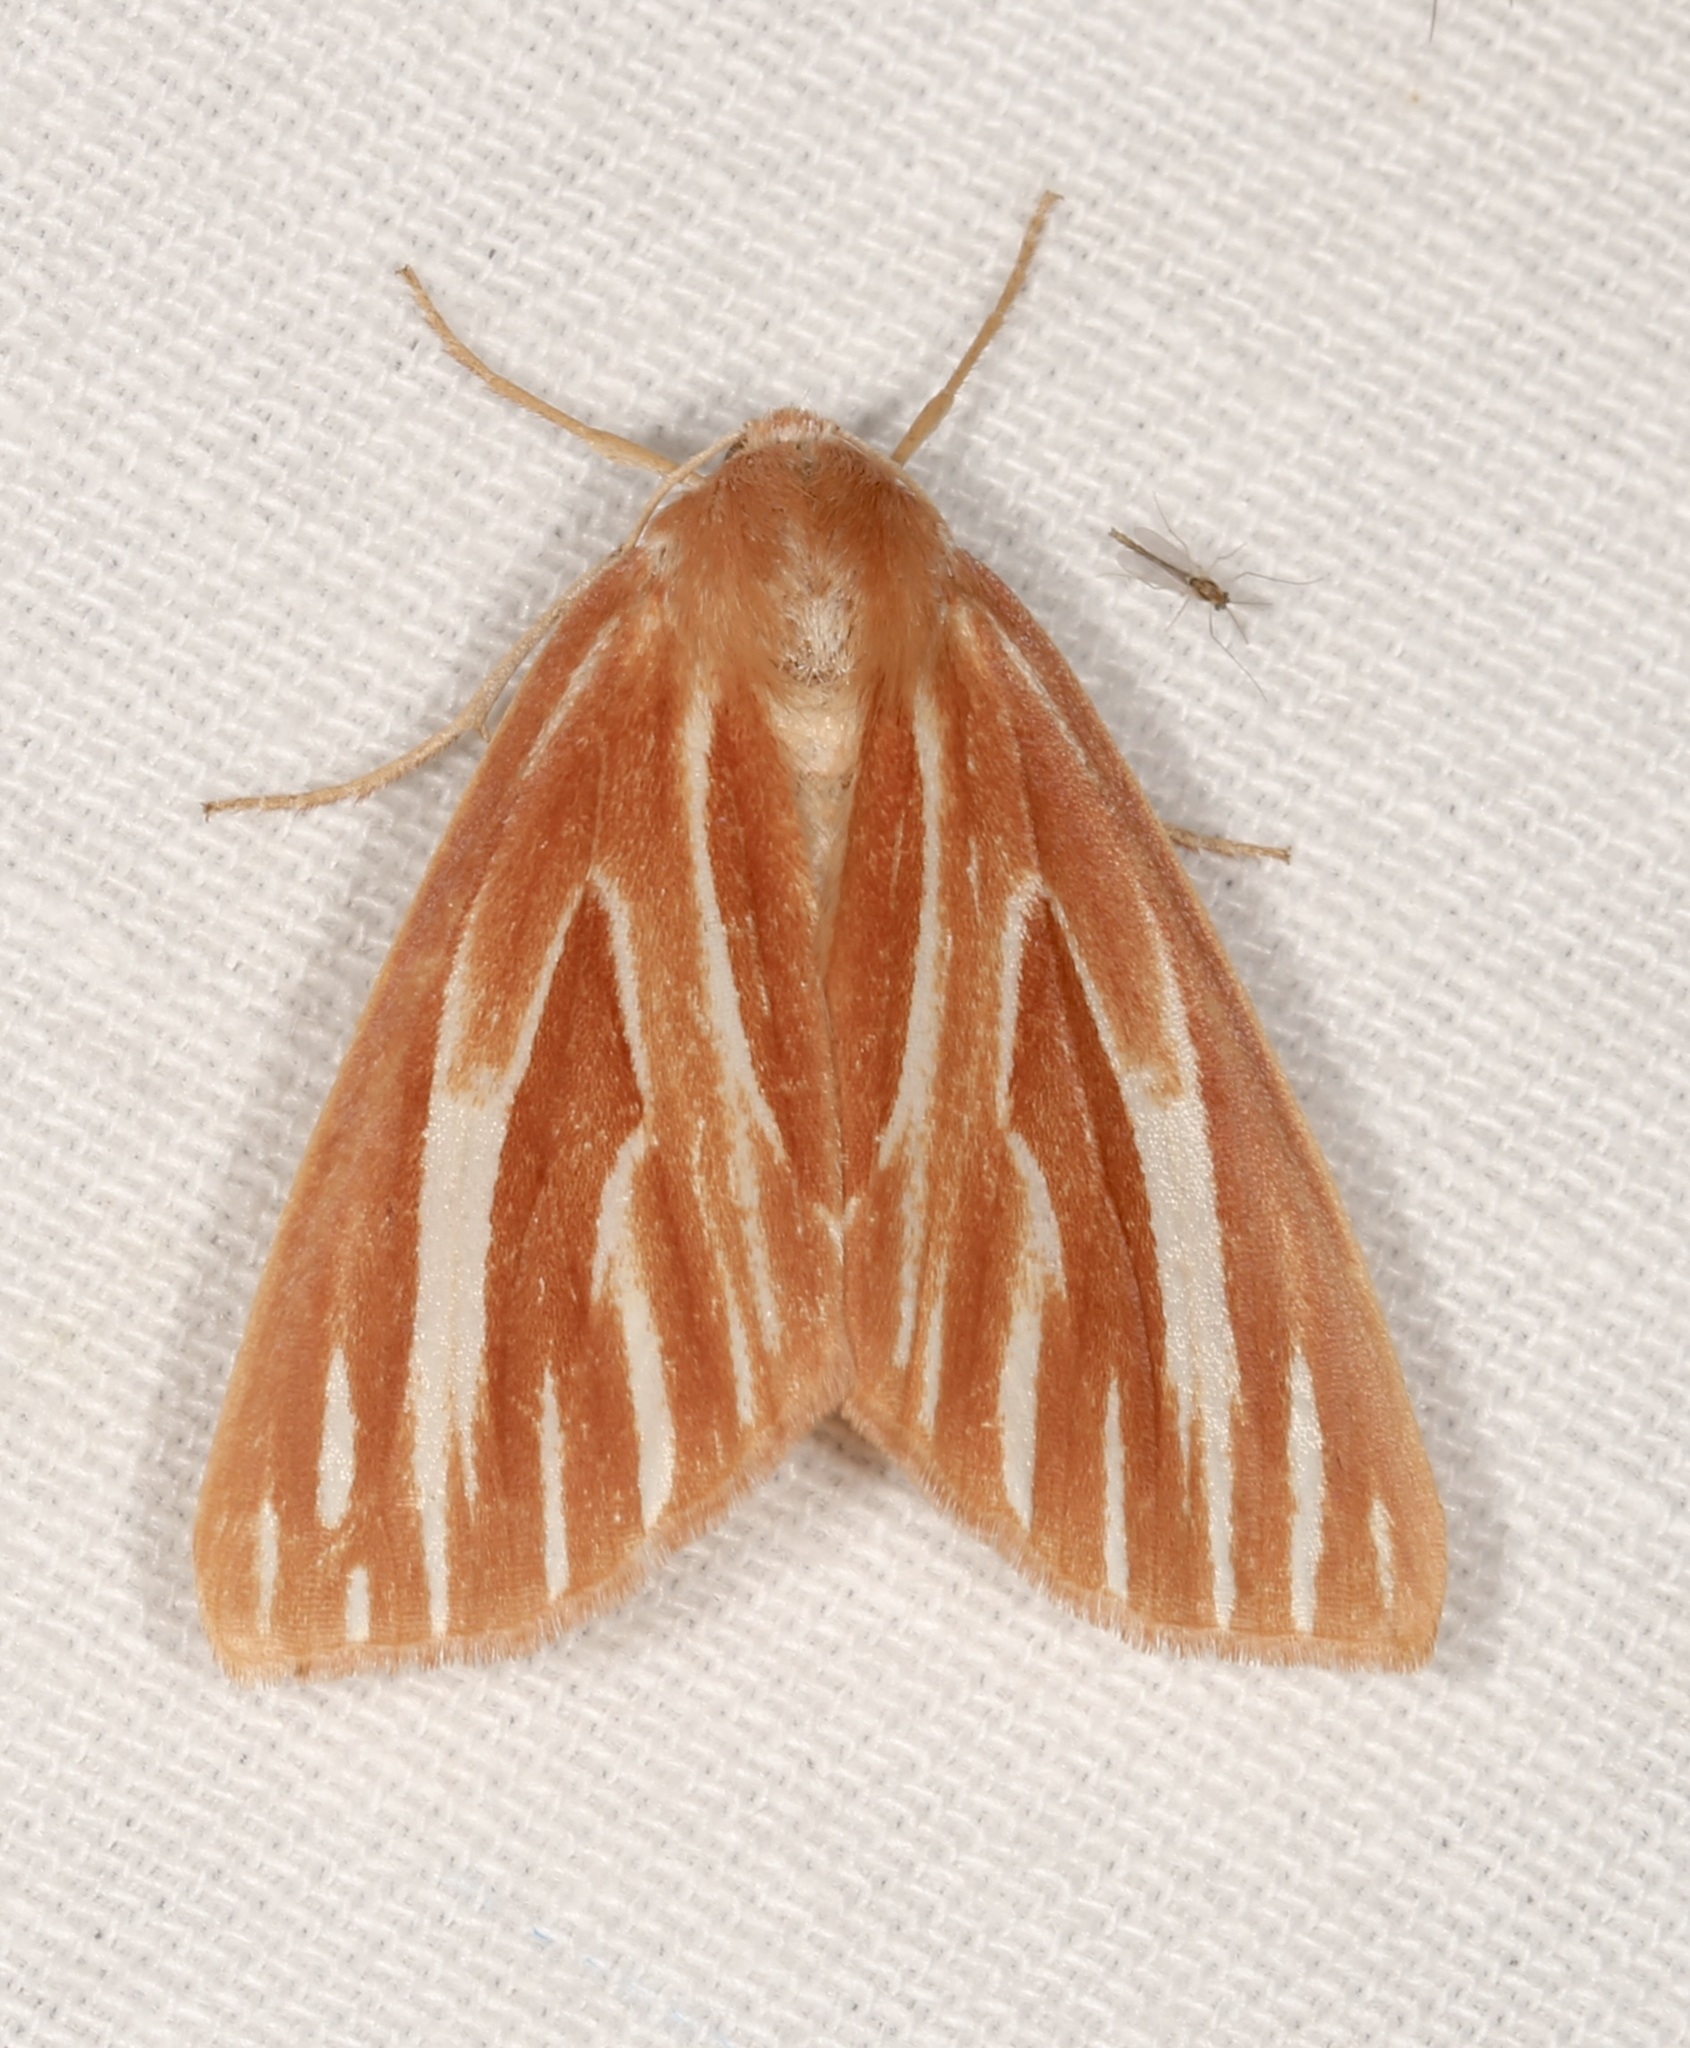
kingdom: Animalia
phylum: Arthropoda
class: Insecta
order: Lepidoptera
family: Geometridae
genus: Sabulodes
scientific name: Sabulodes niveostriata
